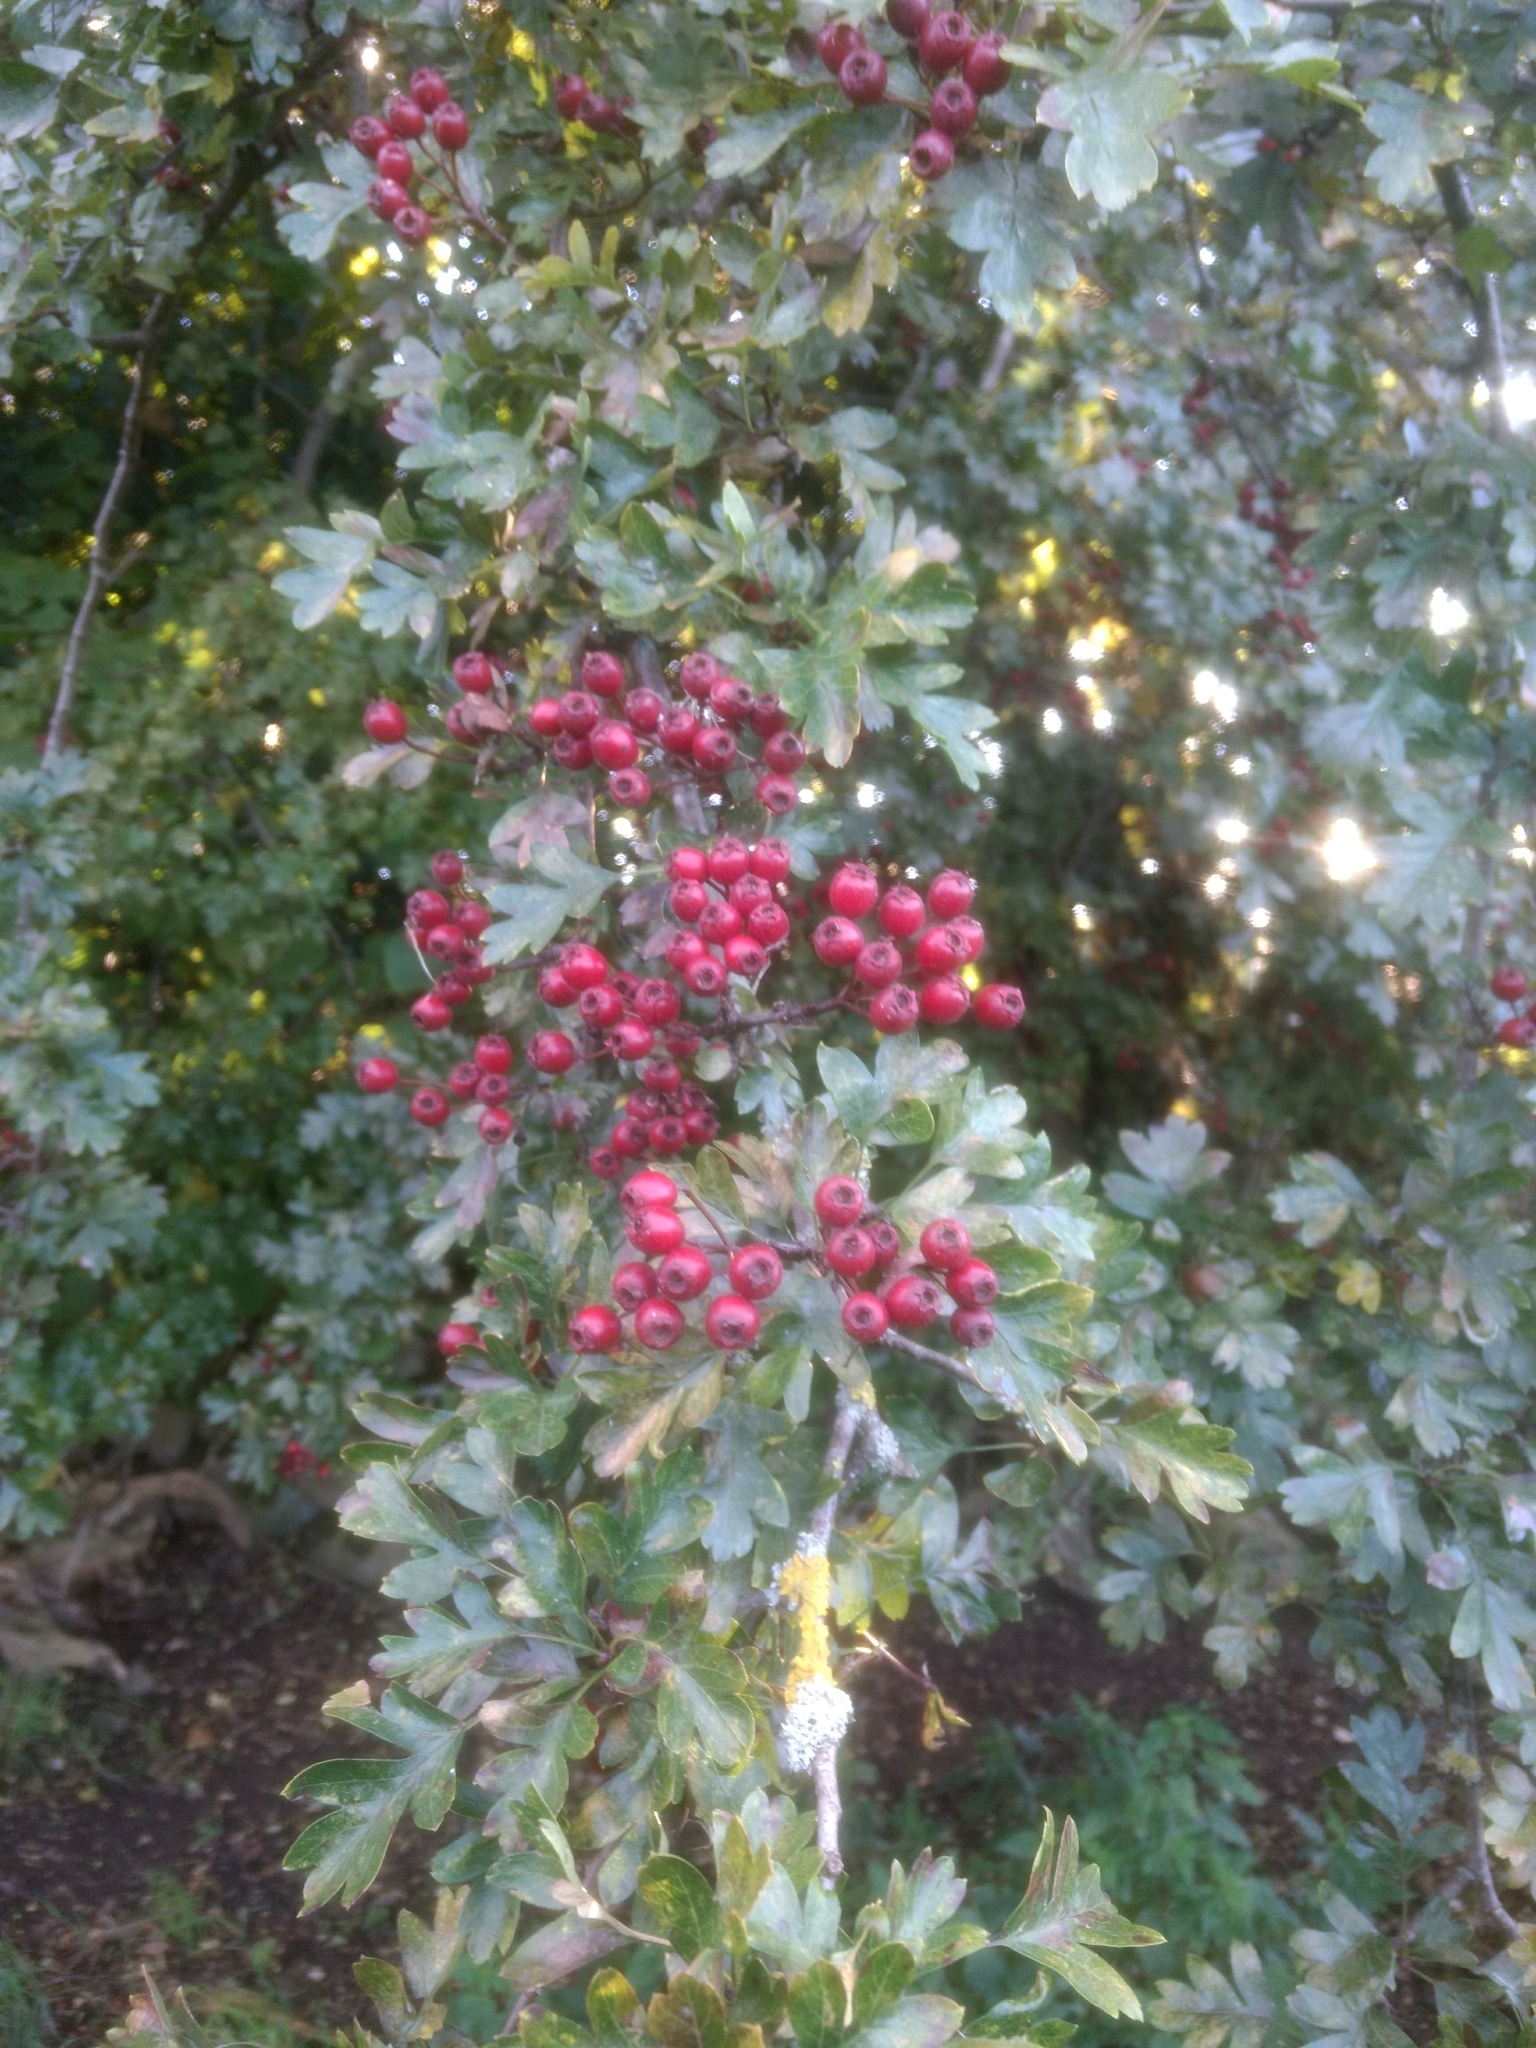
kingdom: Plantae
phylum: Tracheophyta
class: Magnoliopsida
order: Rosales
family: Rosaceae
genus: Crataegus
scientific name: Crataegus monogyna
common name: Hawthorn
